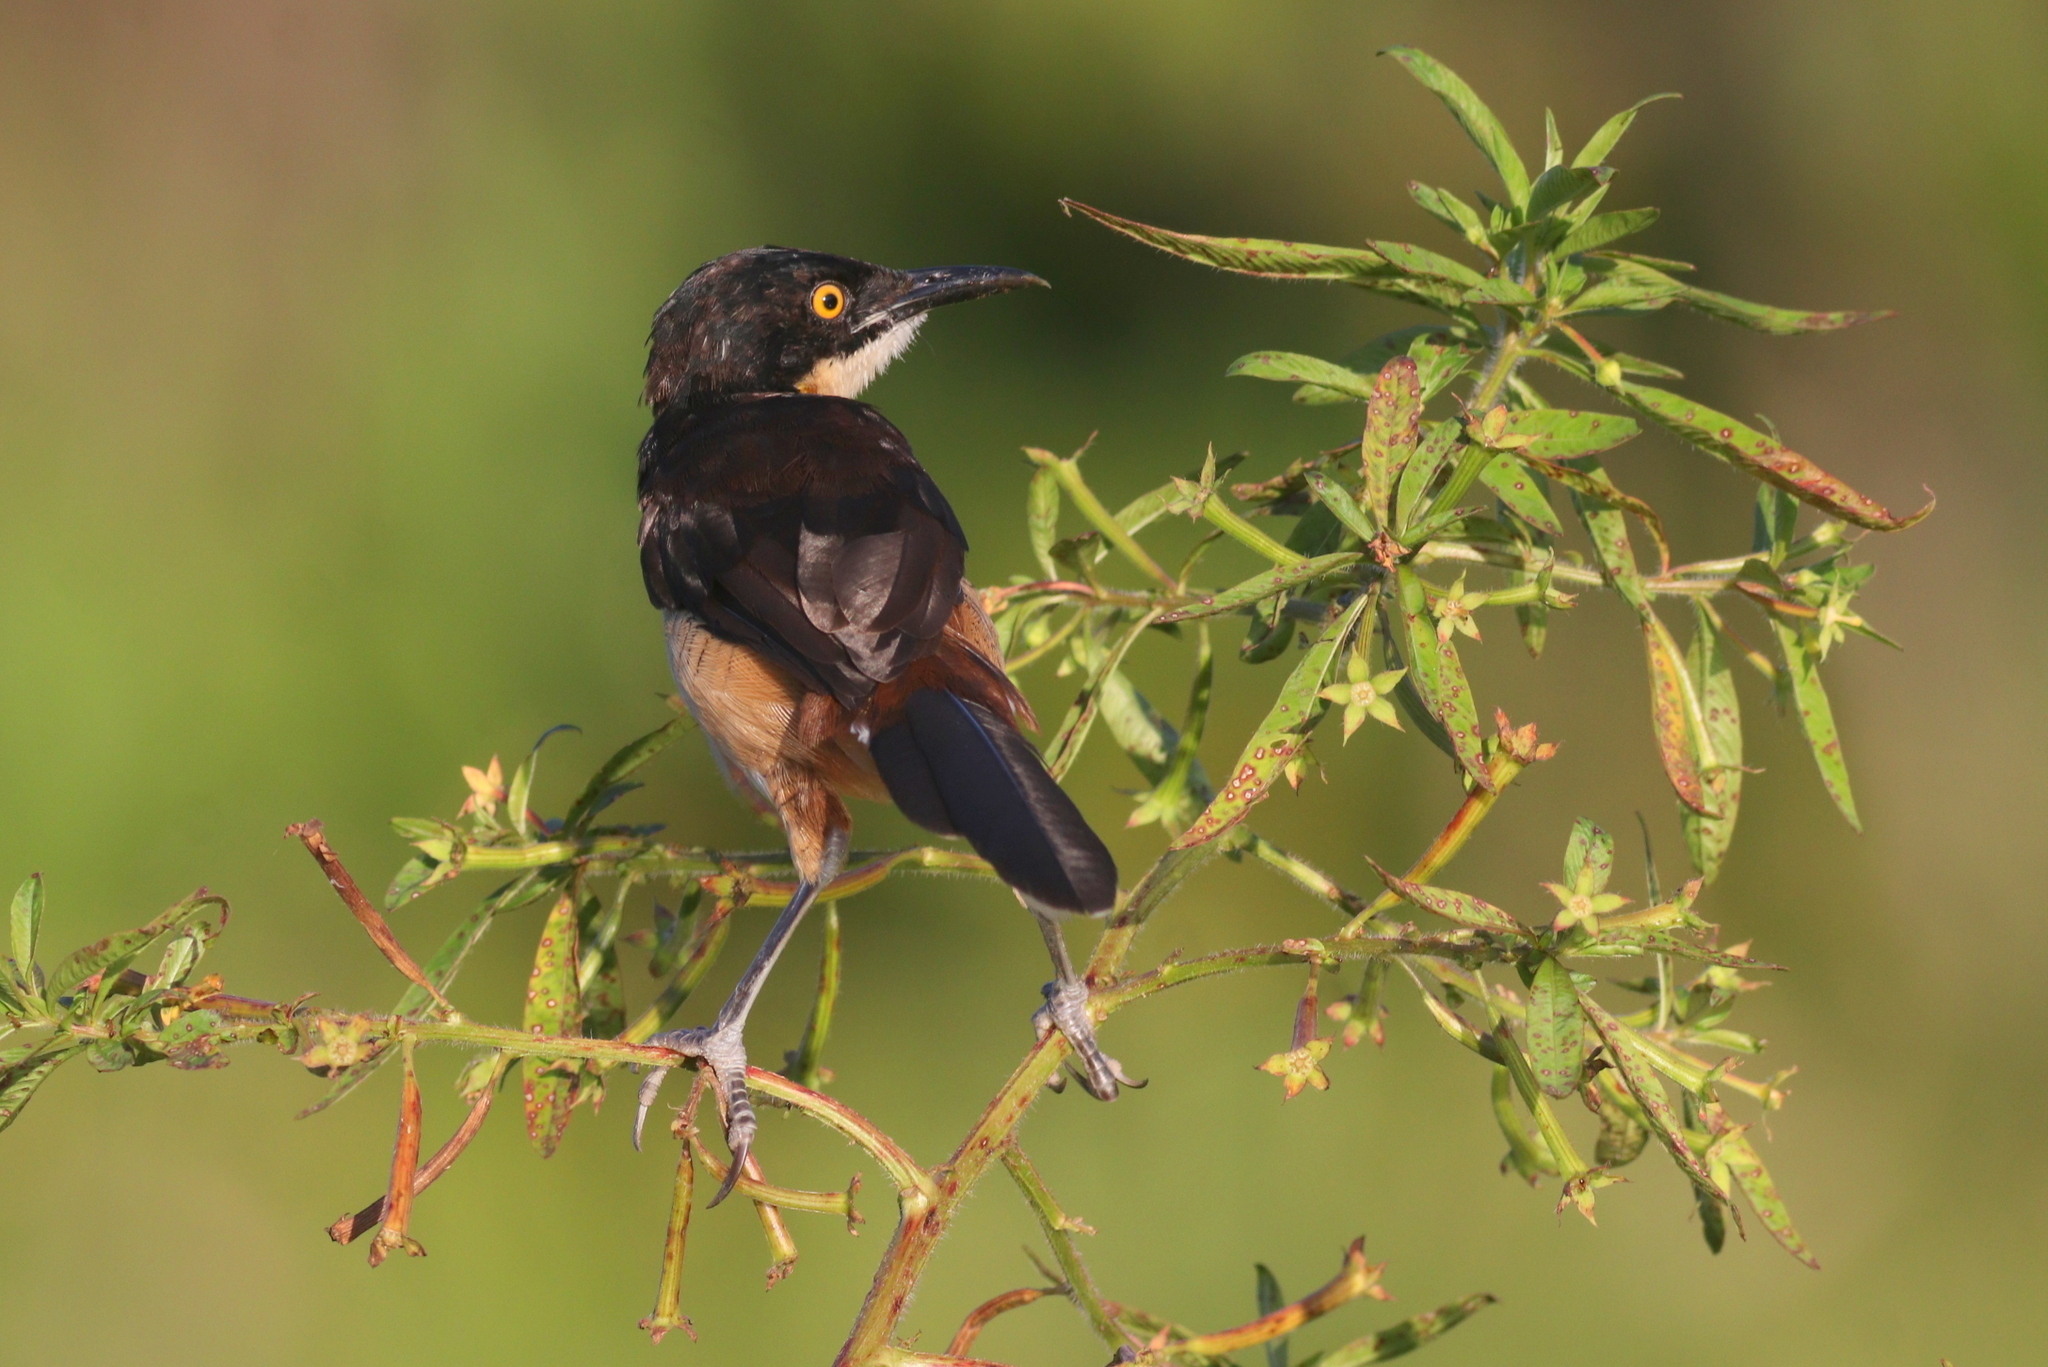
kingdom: Animalia
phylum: Chordata
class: Aves
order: Passeriformes
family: Donacobiidae
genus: Donacobius
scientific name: Donacobius atricapilla
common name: Black-capped donacobius
